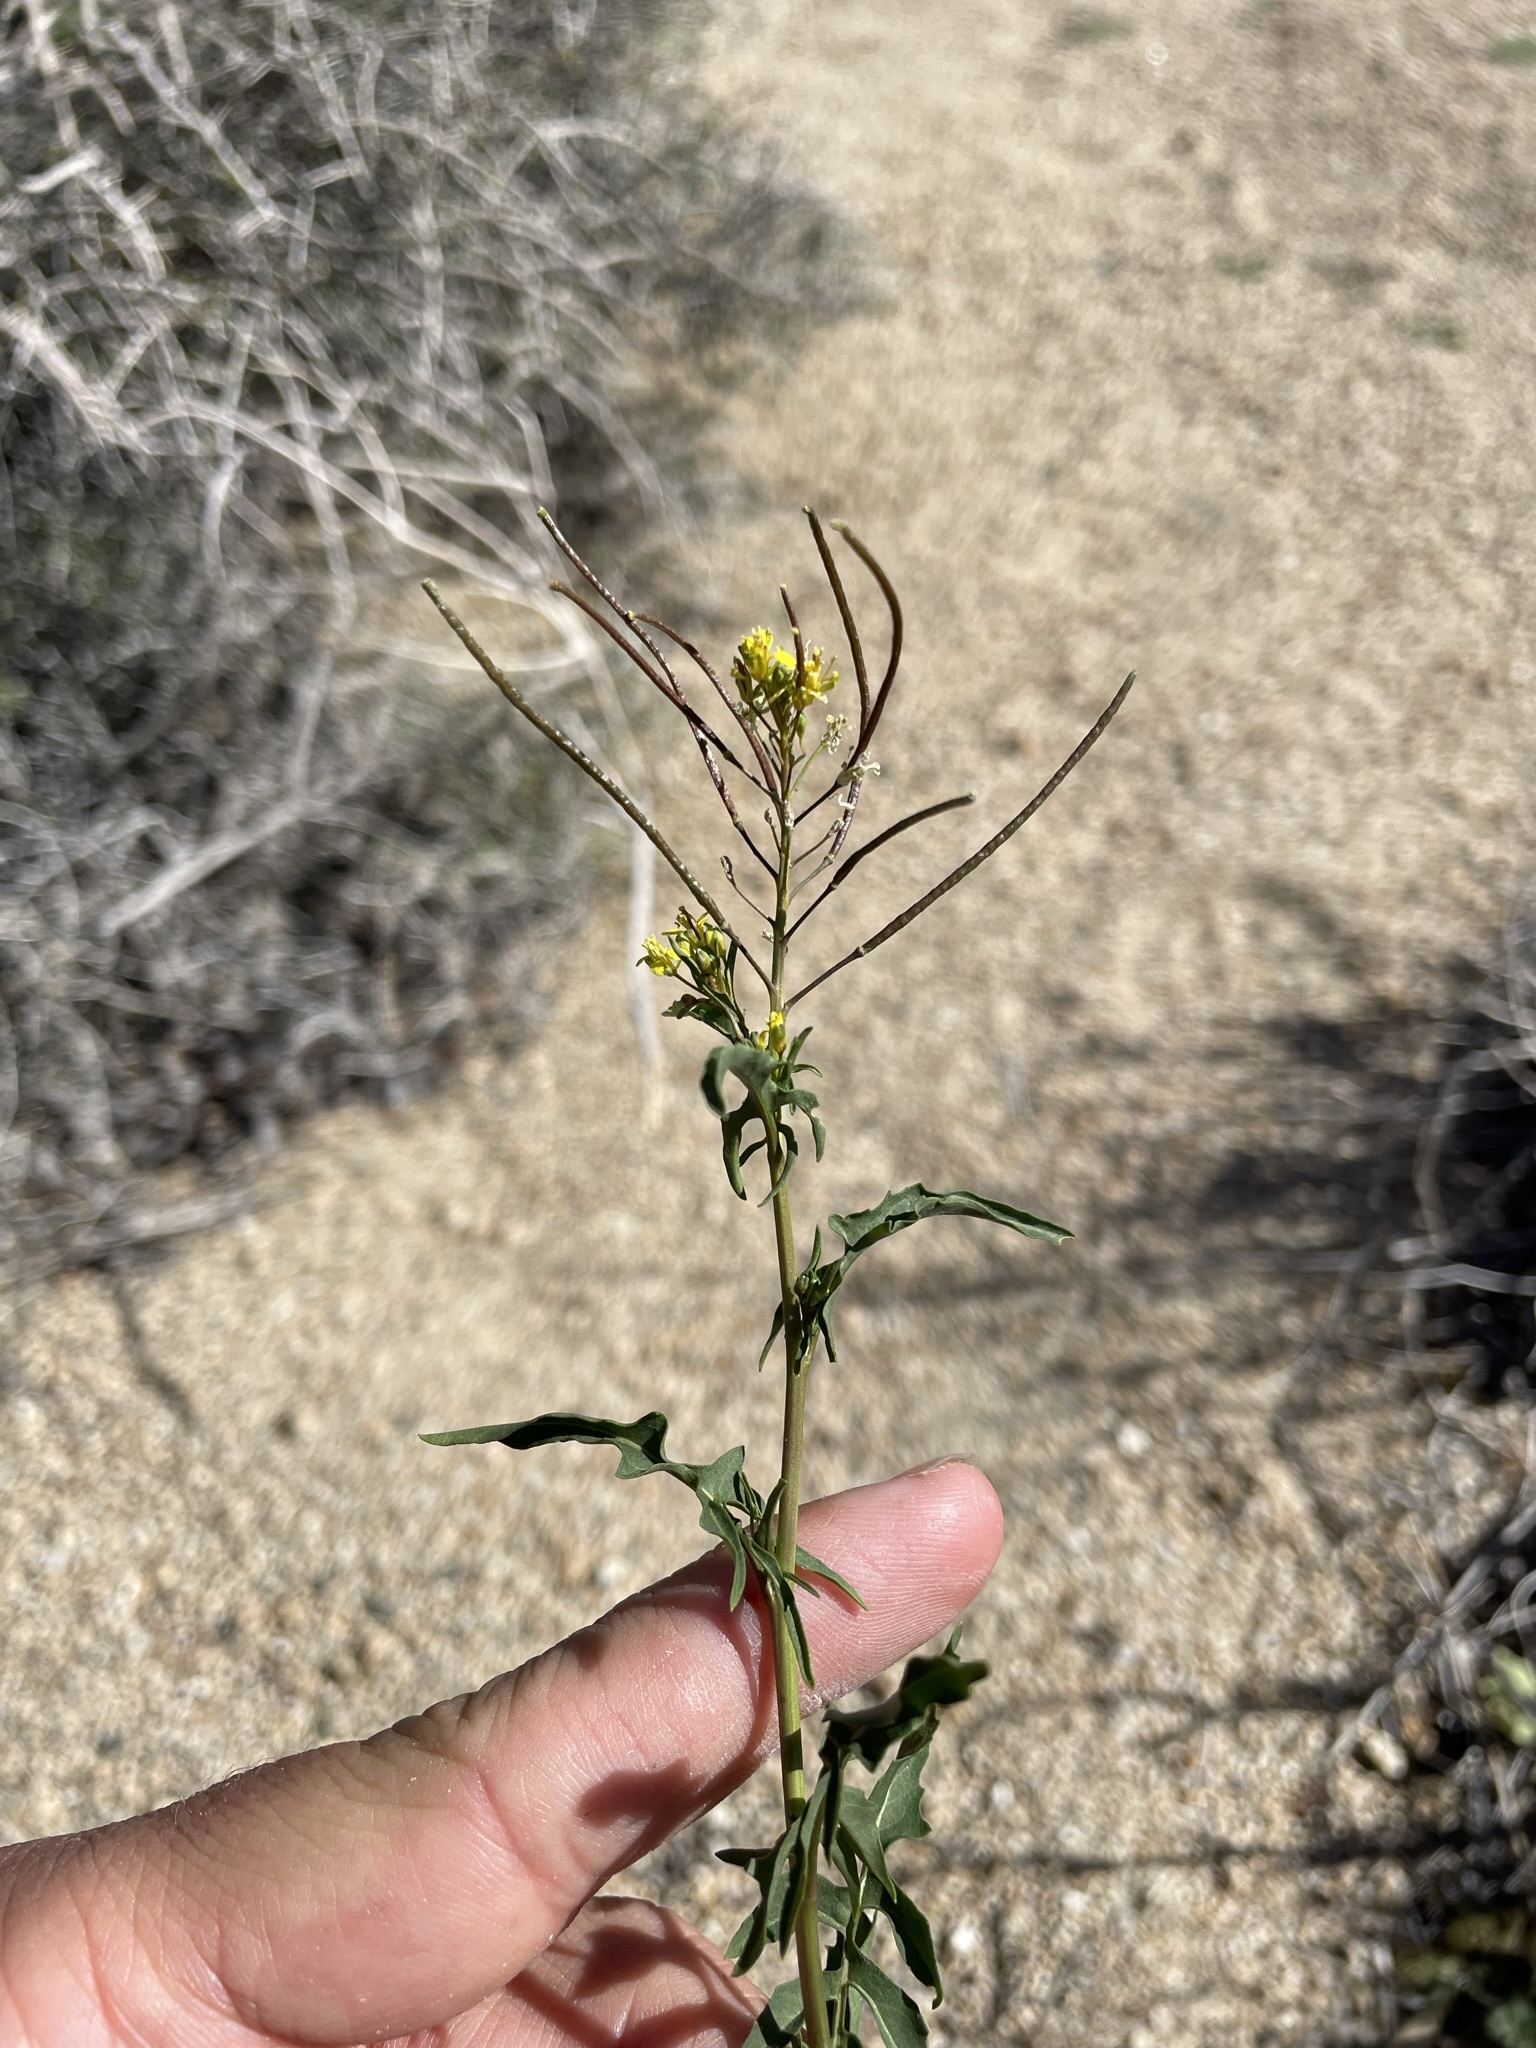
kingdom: Plantae
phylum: Tracheophyta
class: Magnoliopsida
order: Brassicales
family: Brassicaceae
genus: Sisymbrium
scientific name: Sisymbrium irio
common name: London rocket
